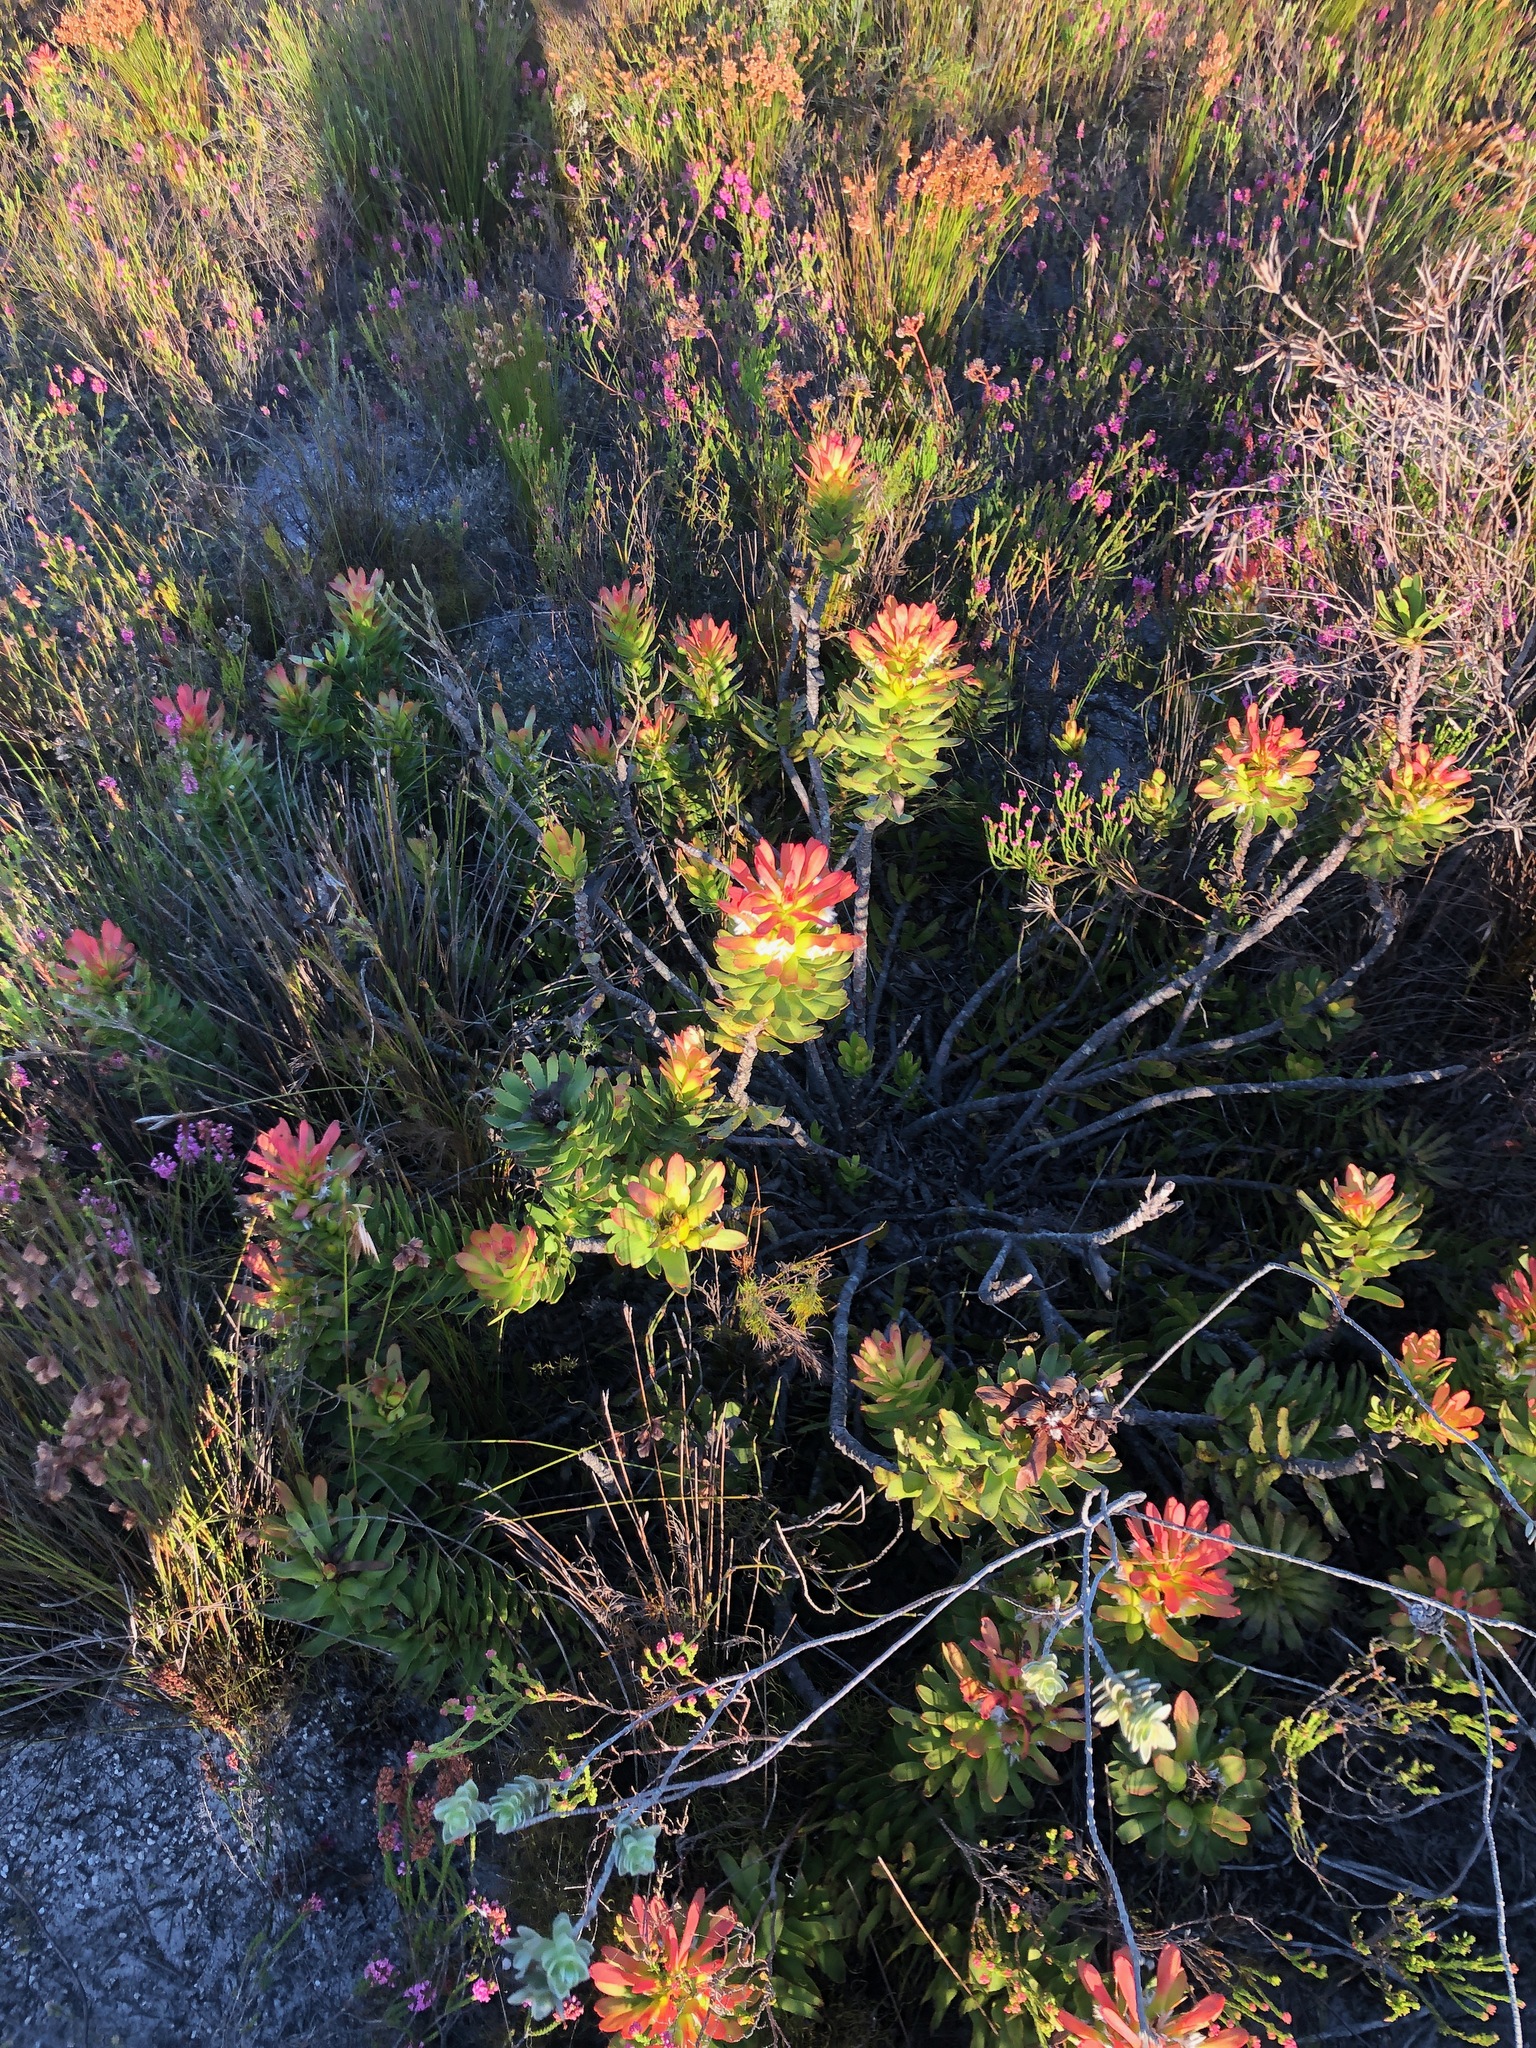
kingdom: Plantae
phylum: Tracheophyta
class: Magnoliopsida
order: Proteales
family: Proteaceae
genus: Mimetes
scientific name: Mimetes cucullatus
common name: Common pagoda
